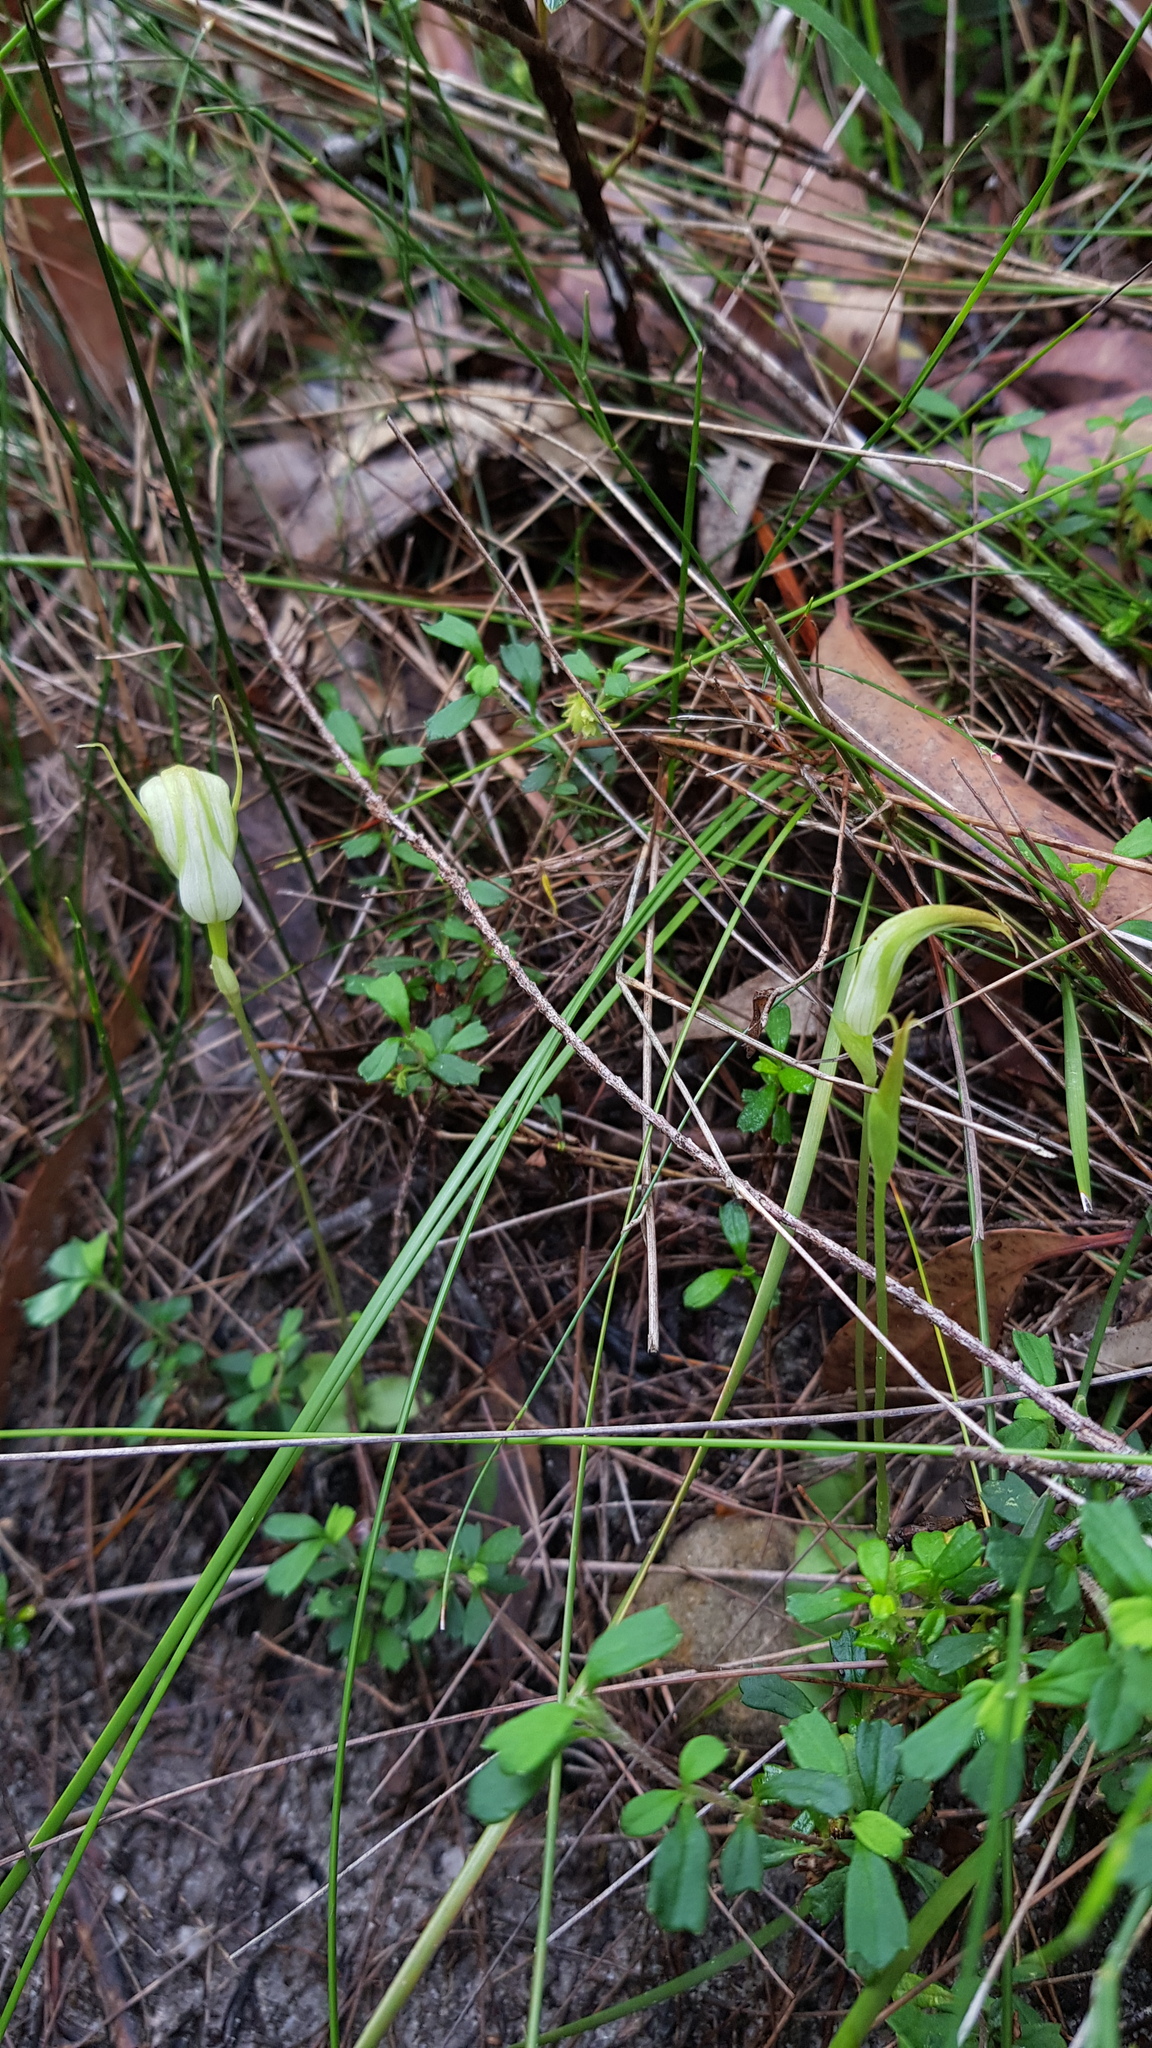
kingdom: Plantae
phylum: Tracheophyta
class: Liliopsida
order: Asparagales
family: Orchidaceae
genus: Pterostylis
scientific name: Pterostylis acuminata
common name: Pointed greenhood
